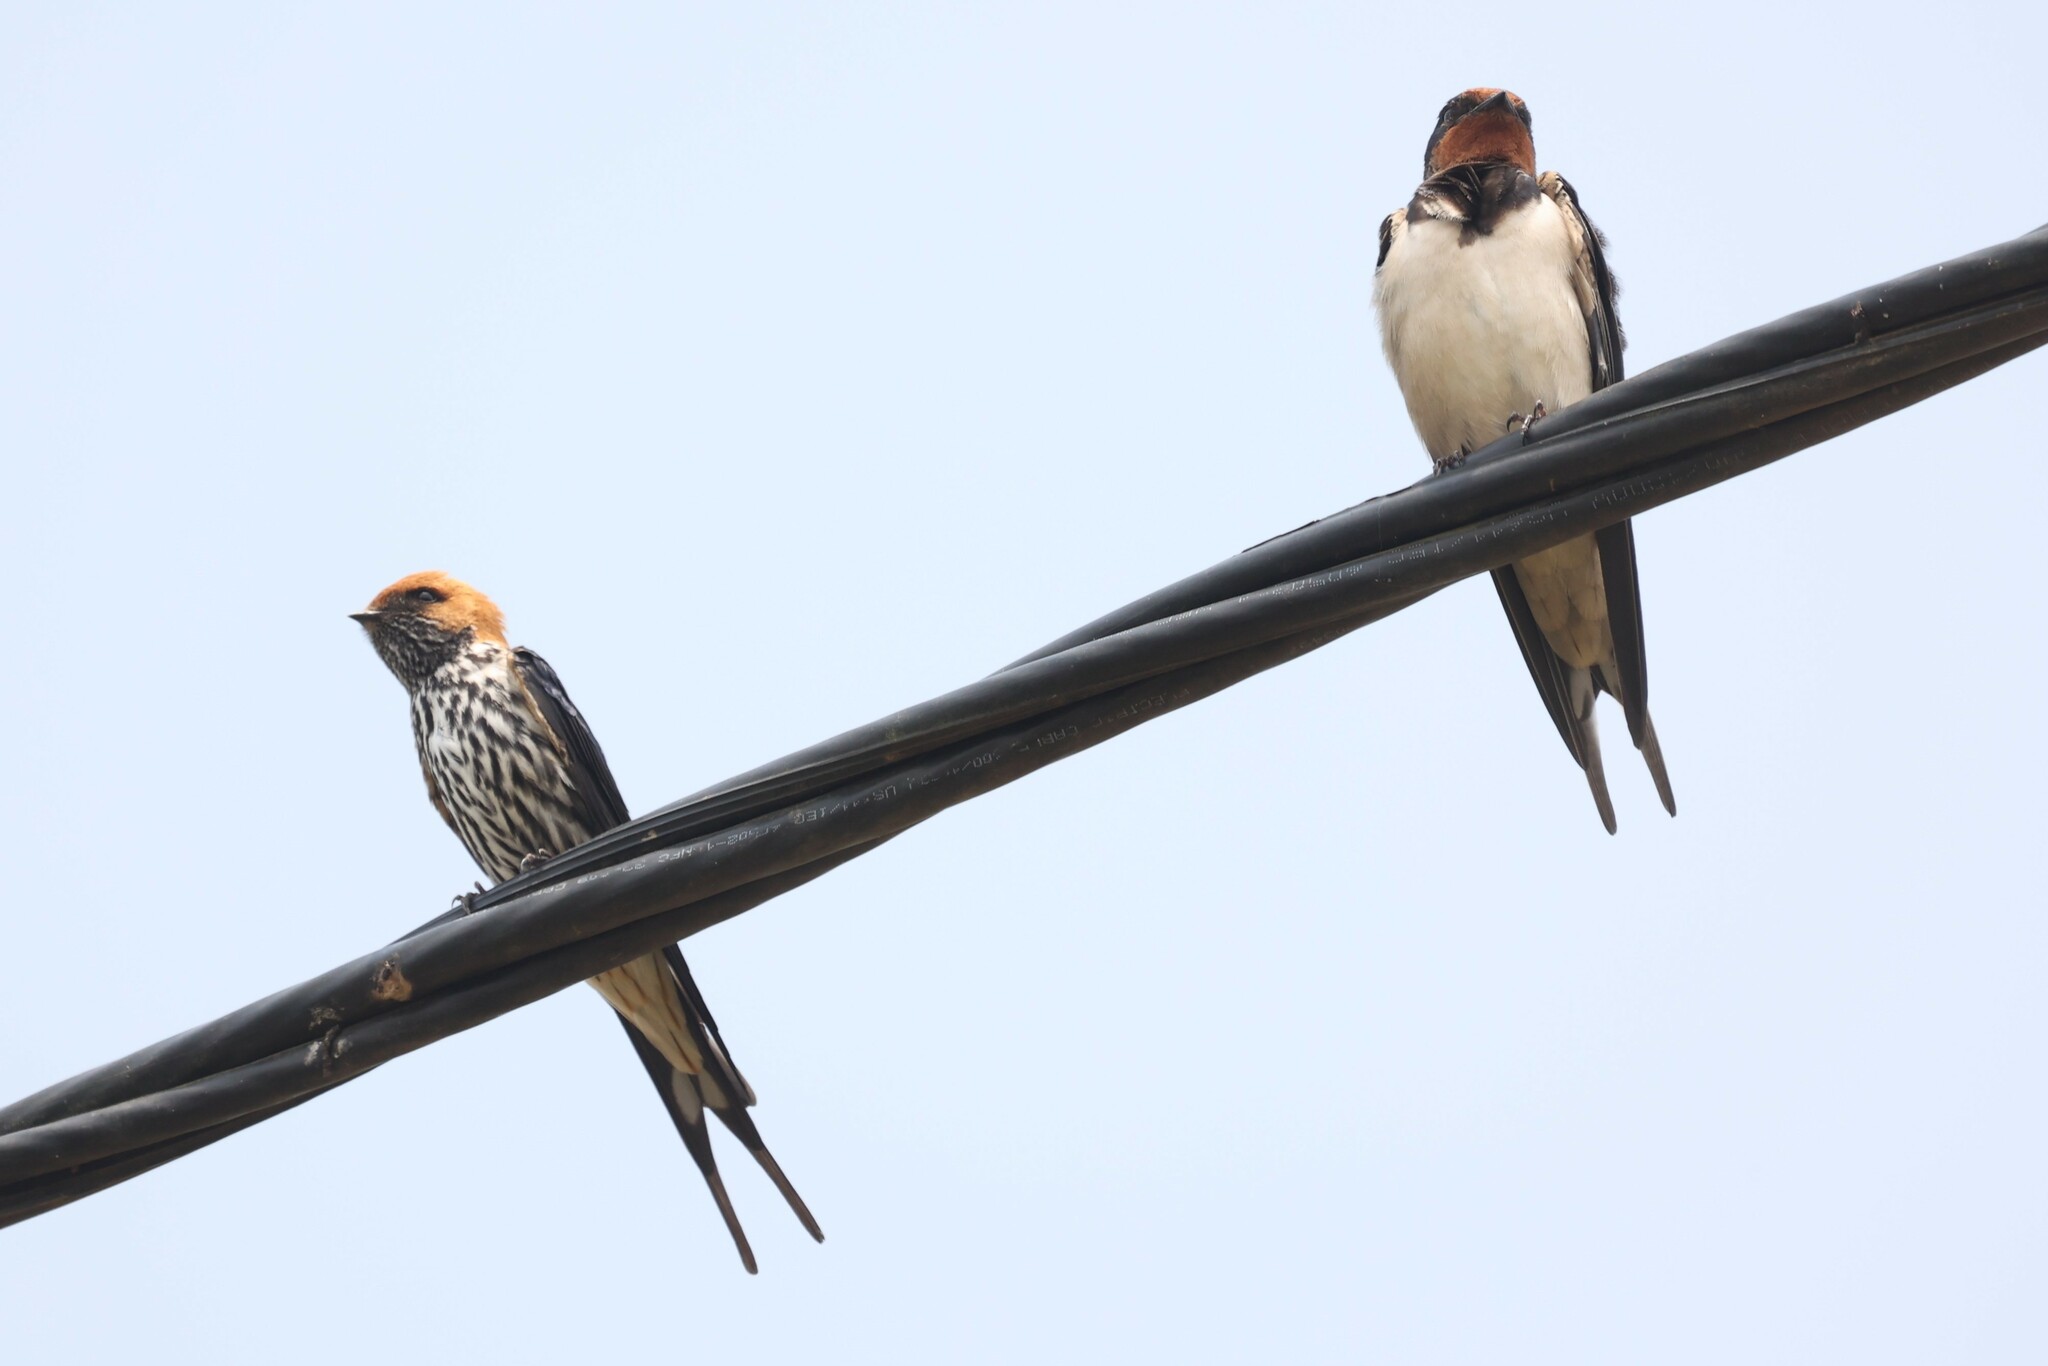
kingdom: Animalia
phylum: Chordata
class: Aves
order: Passeriformes
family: Hirundinidae
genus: Hirundo
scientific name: Hirundo rustica
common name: Barn swallow
